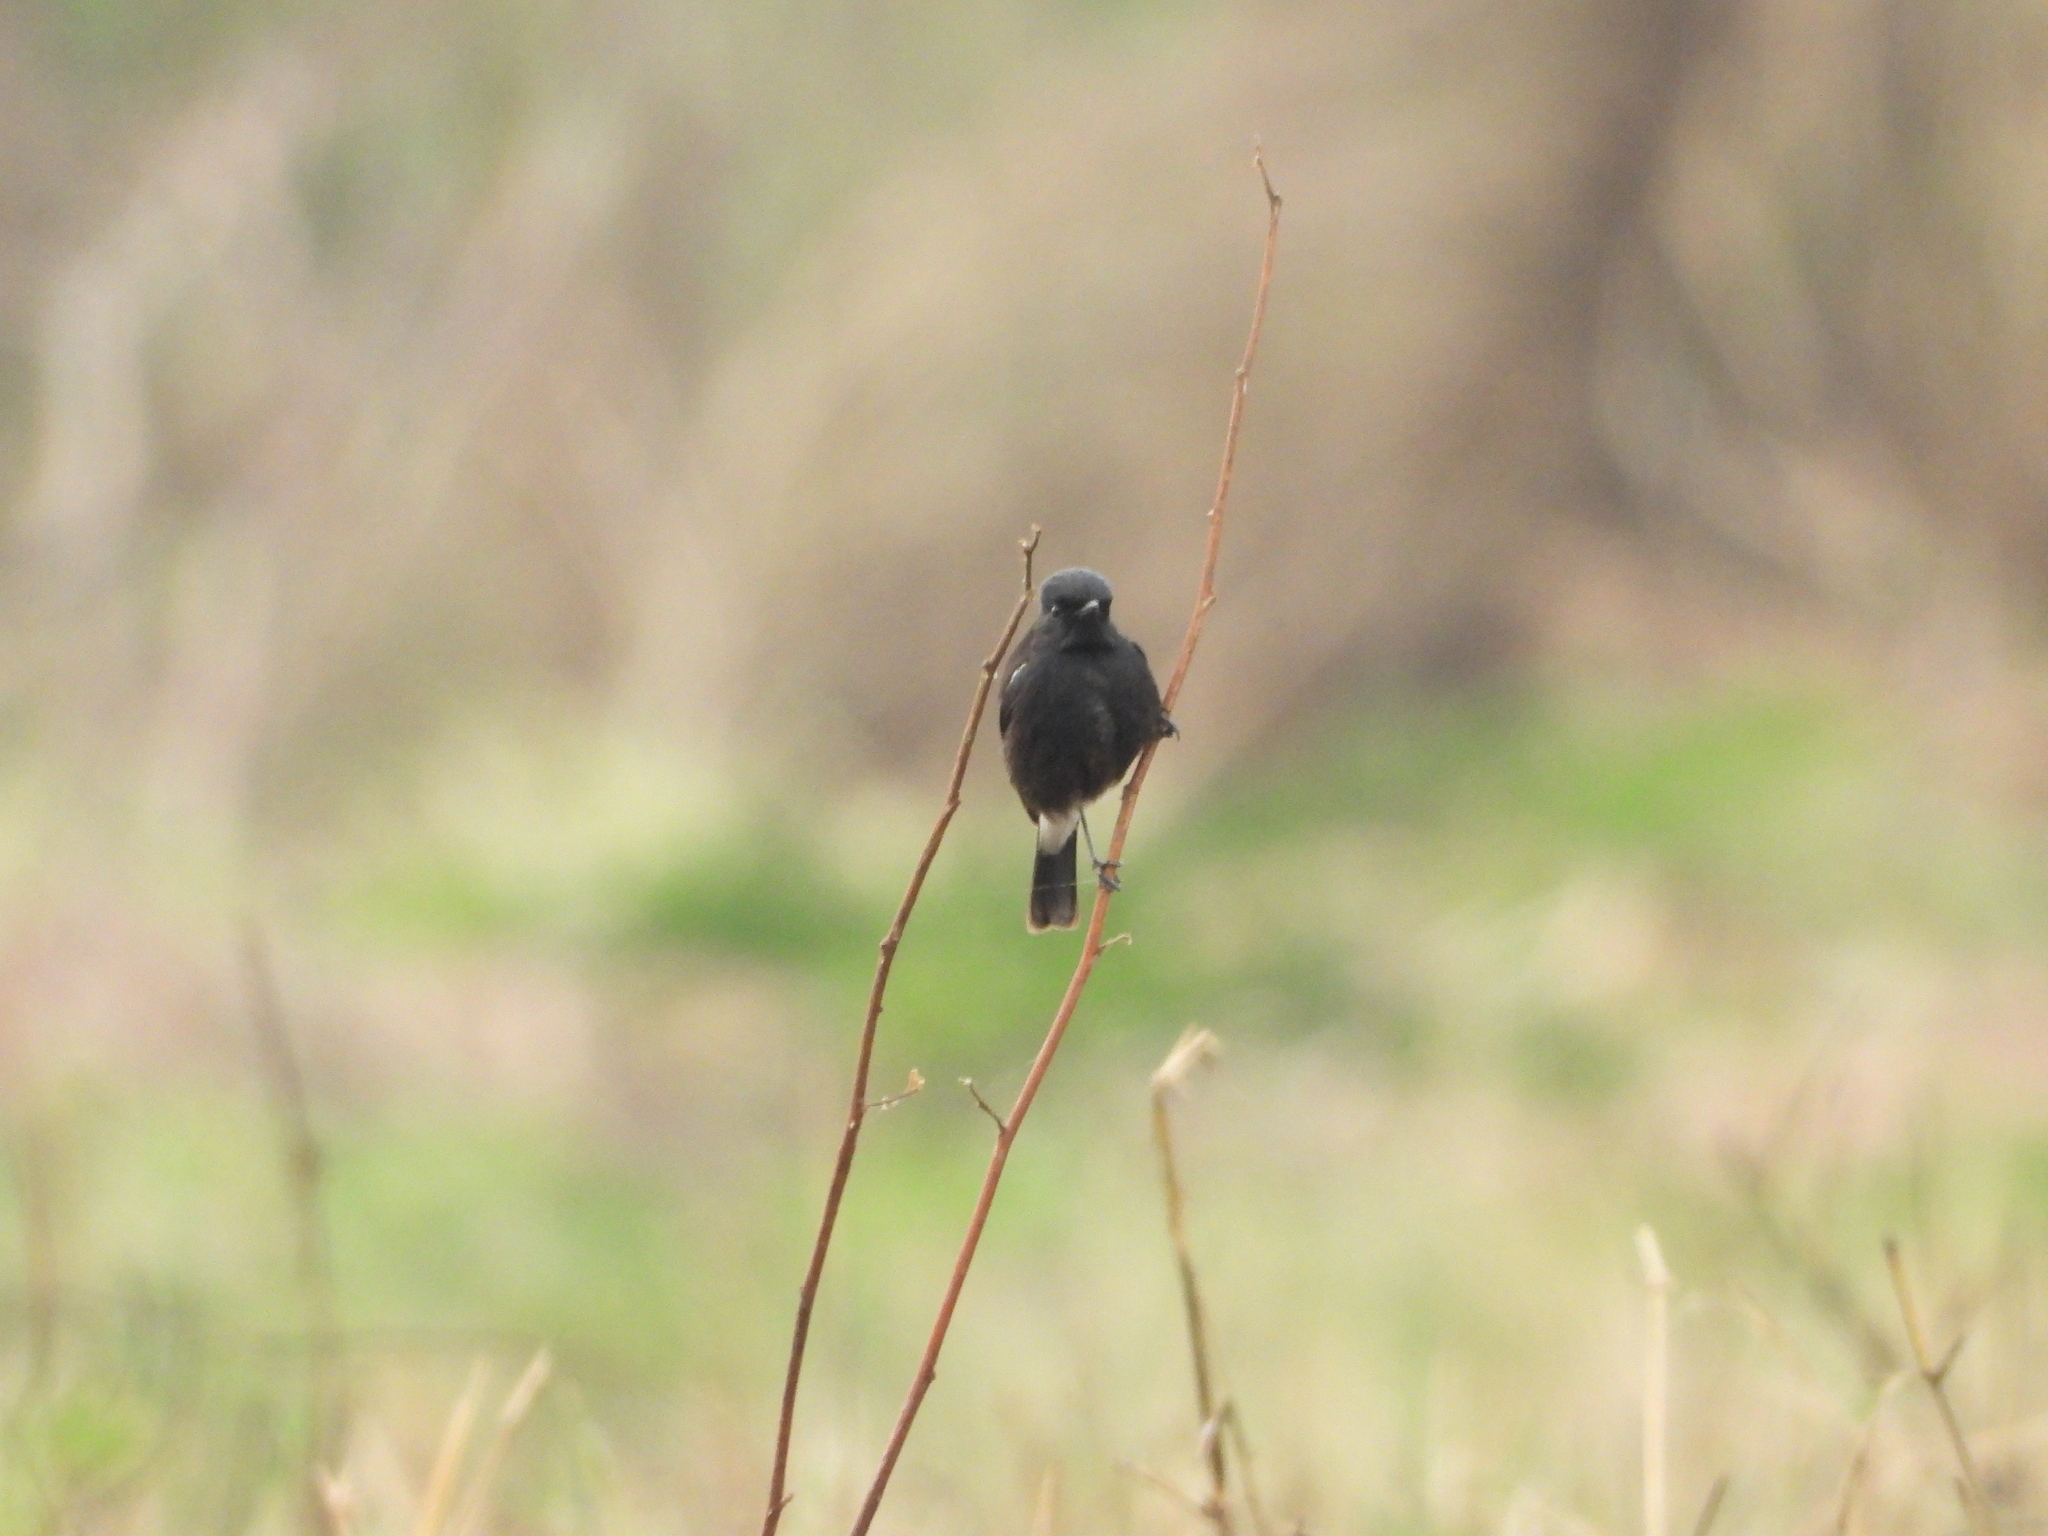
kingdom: Animalia
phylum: Chordata
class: Aves
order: Passeriformes
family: Muscicapidae
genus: Saxicola
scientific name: Saxicola caprata
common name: Pied bush chat
